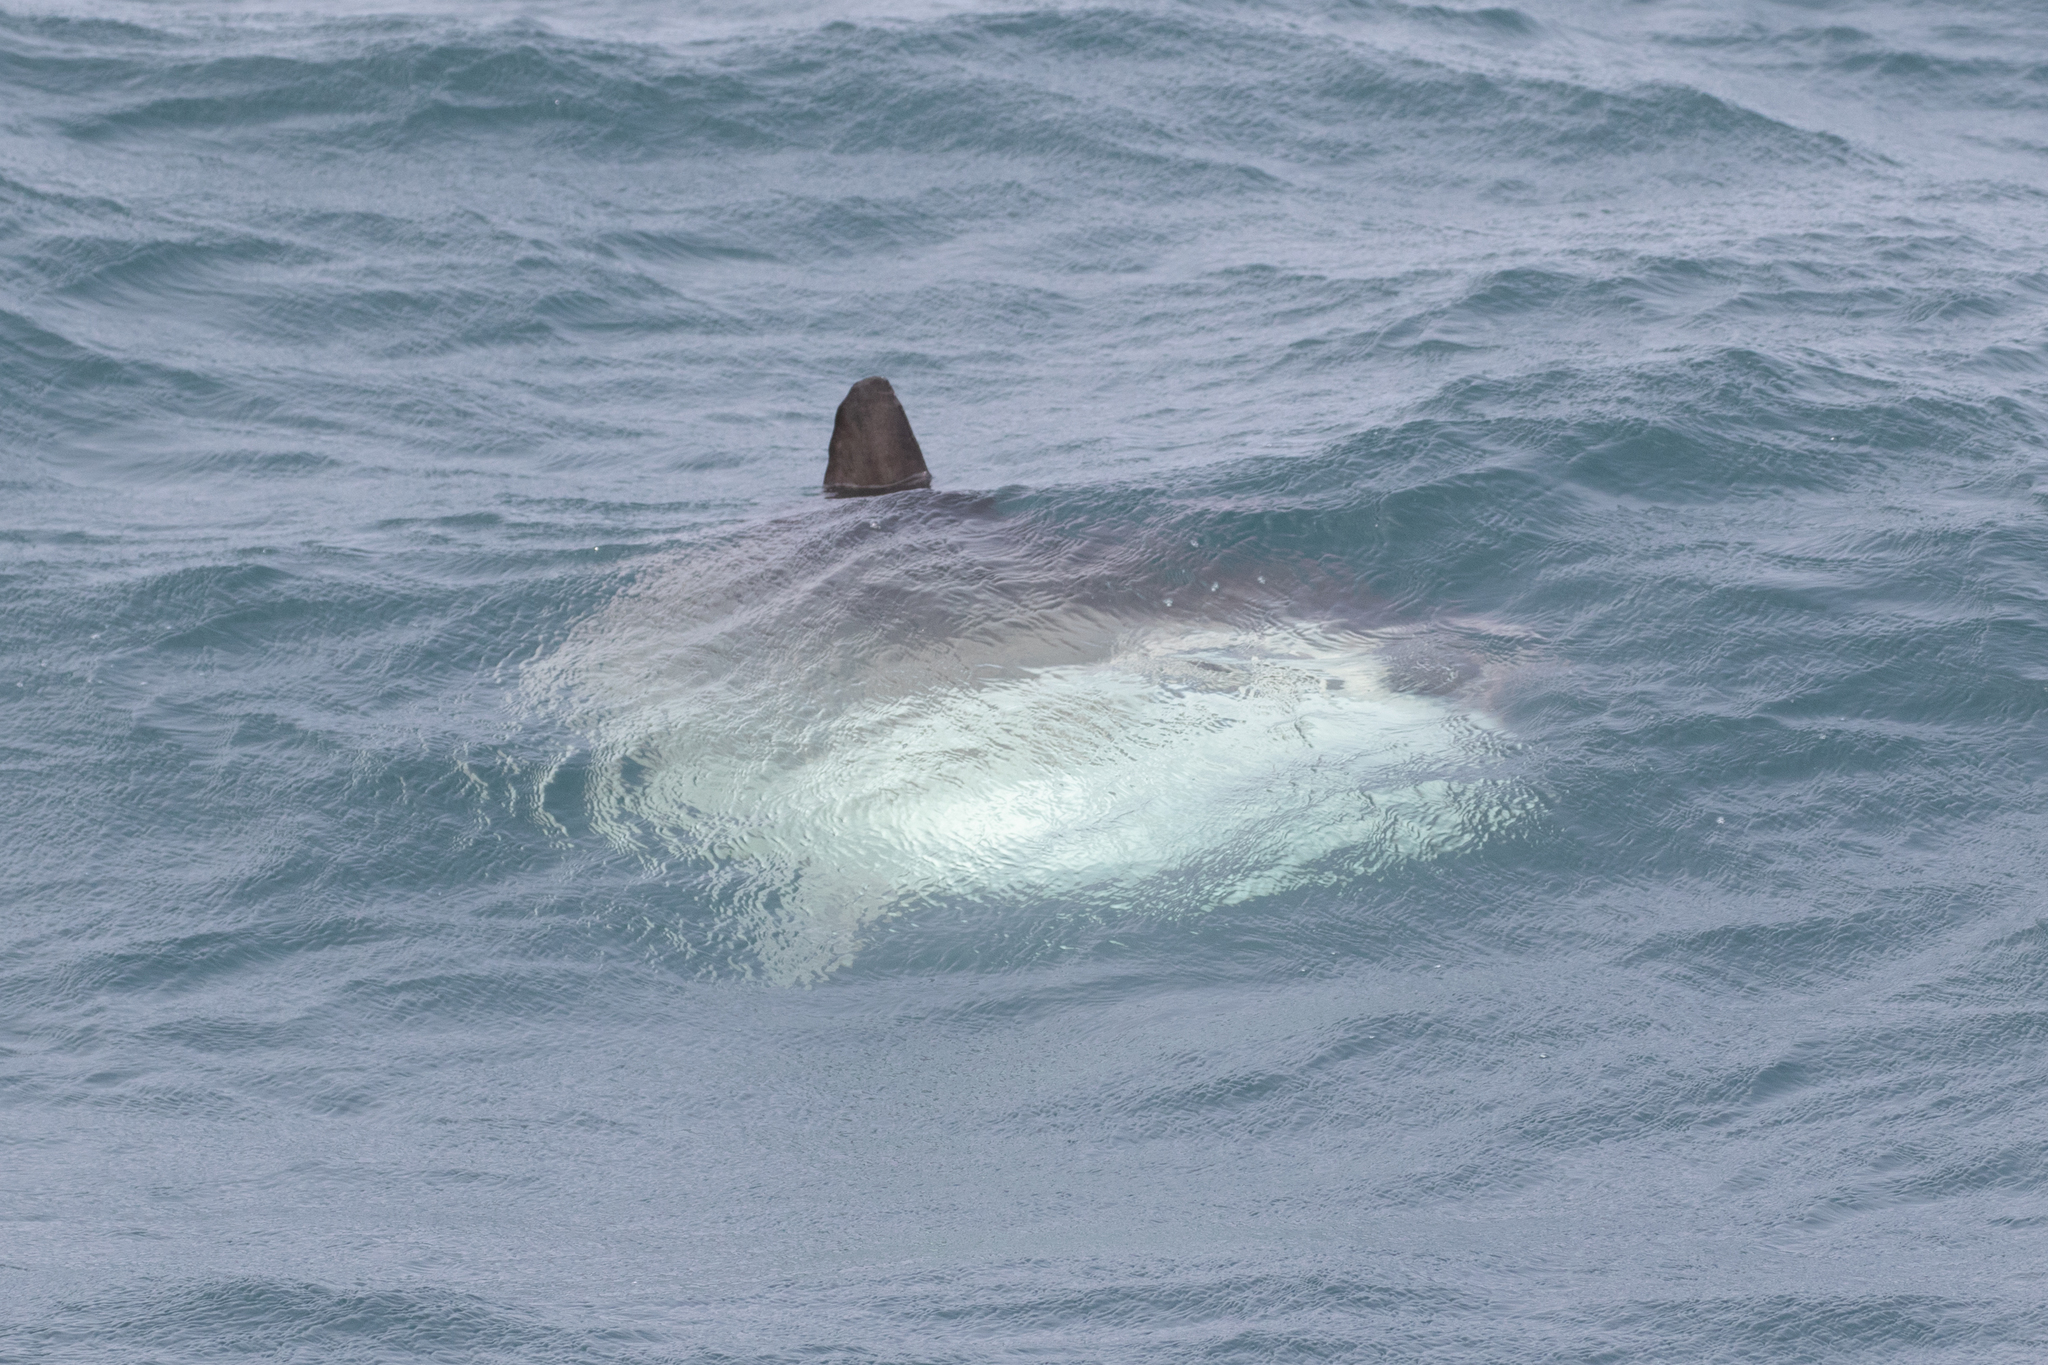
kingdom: Animalia
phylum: Chordata
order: Tetraodontiformes
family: Molidae
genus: Mola
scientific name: Mola mola
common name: Ocean sunfish
